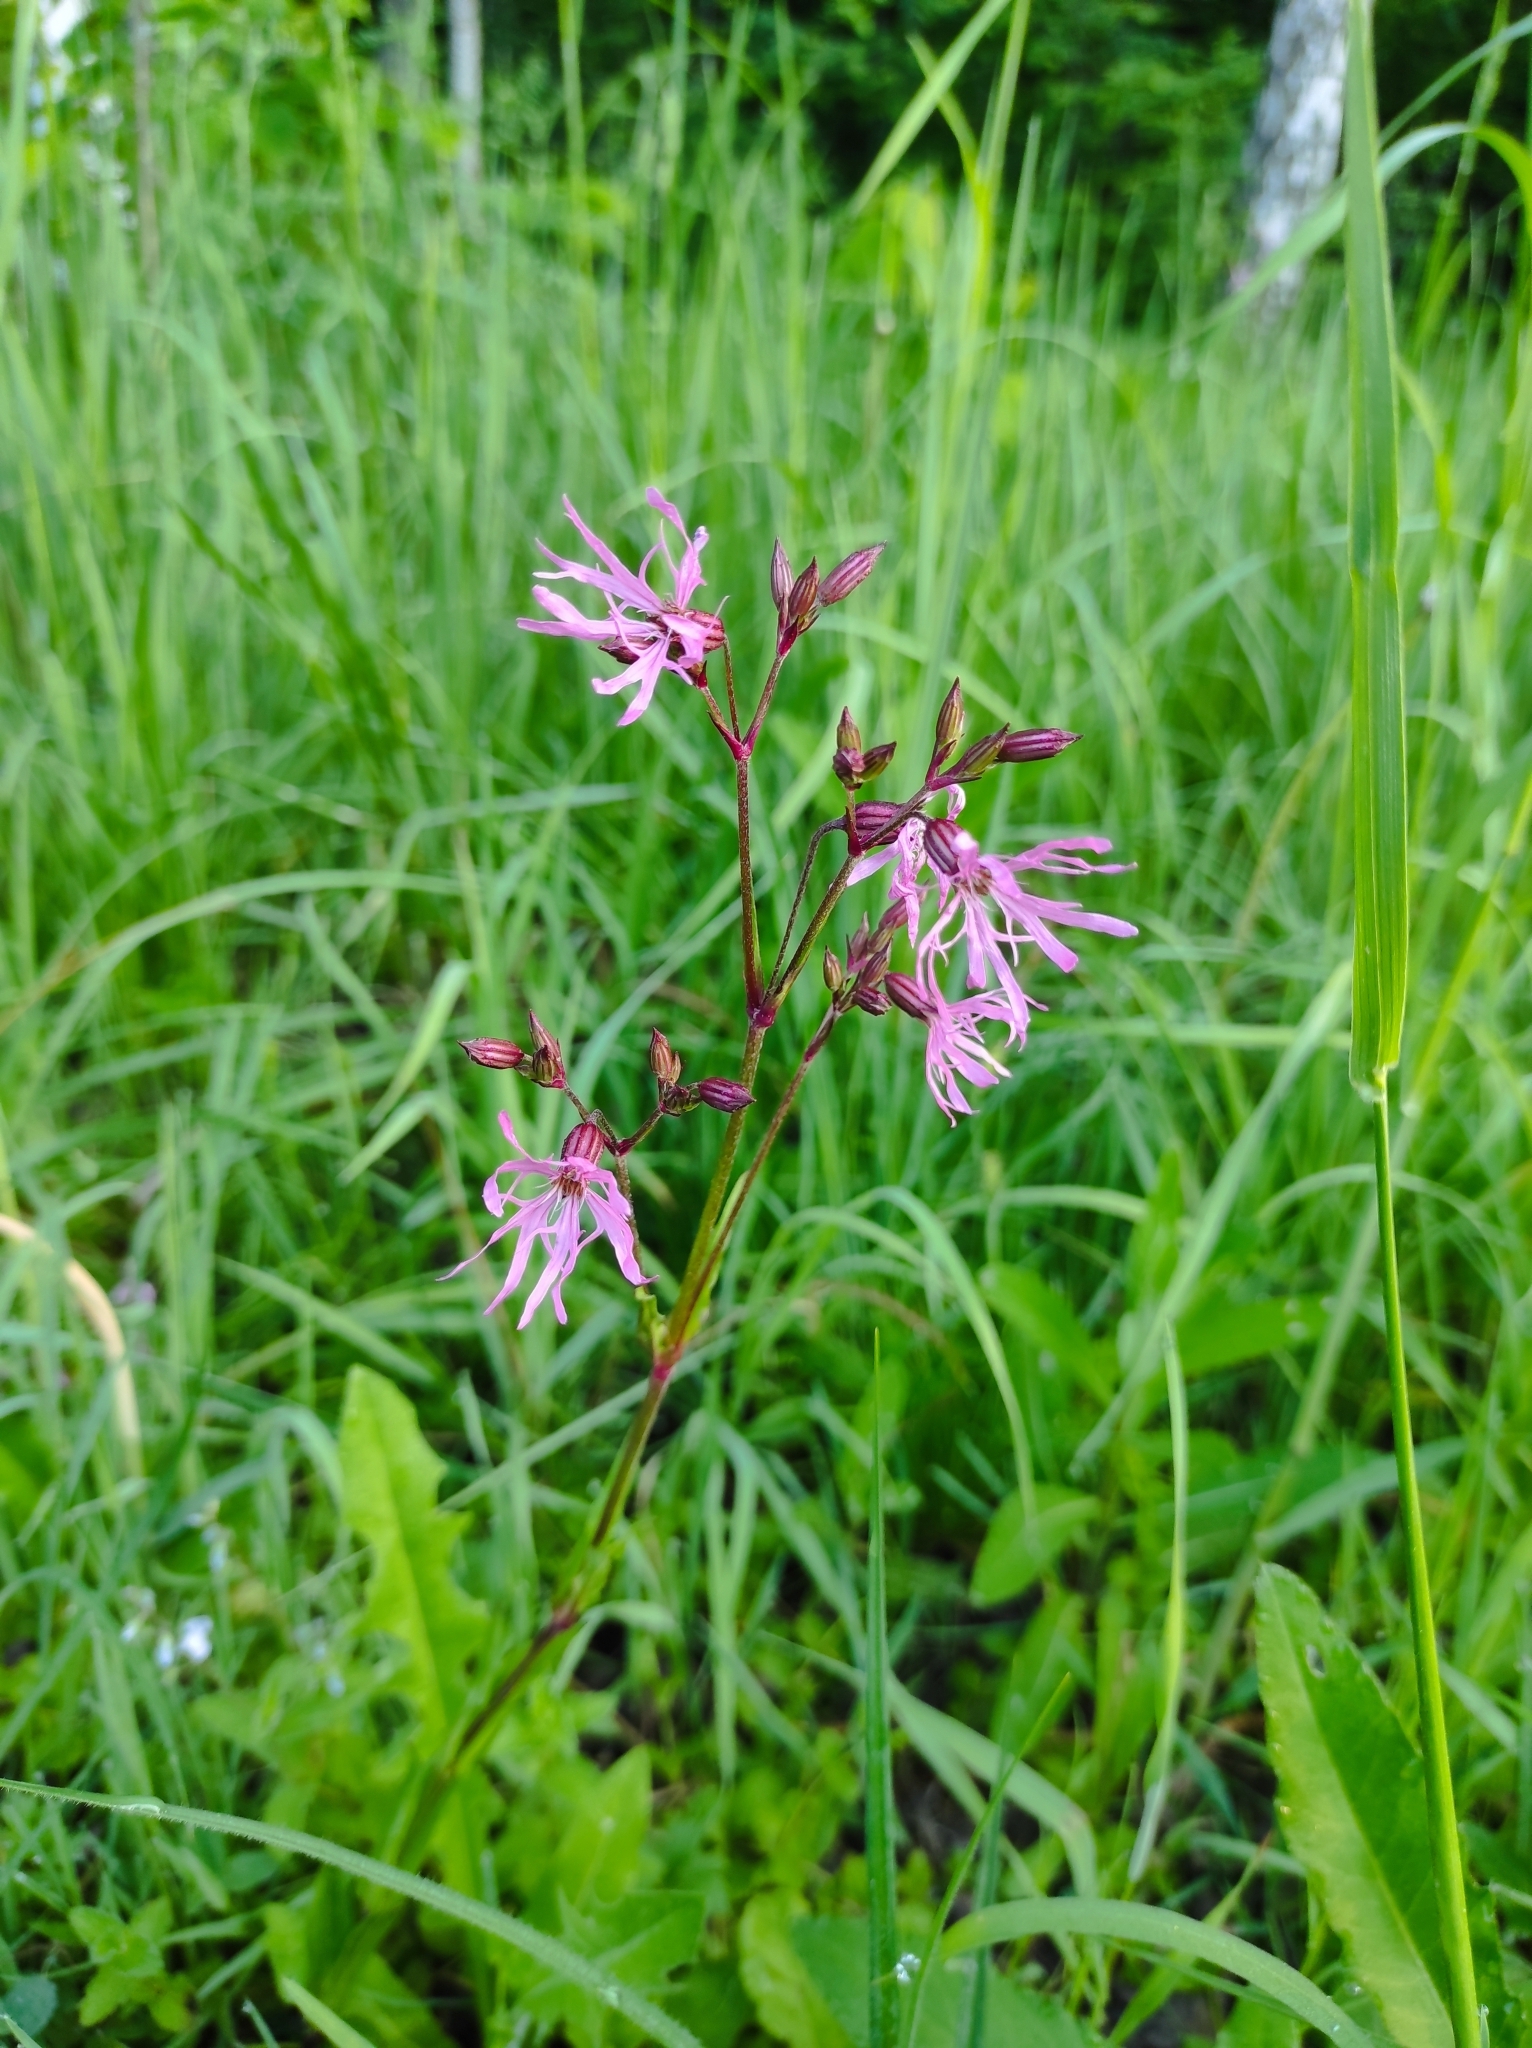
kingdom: Plantae
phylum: Tracheophyta
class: Magnoliopsida
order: Caryophyllales
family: Caryophyllaceae
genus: Silene
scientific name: Silene flos-cuculi
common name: Ragged-robin
